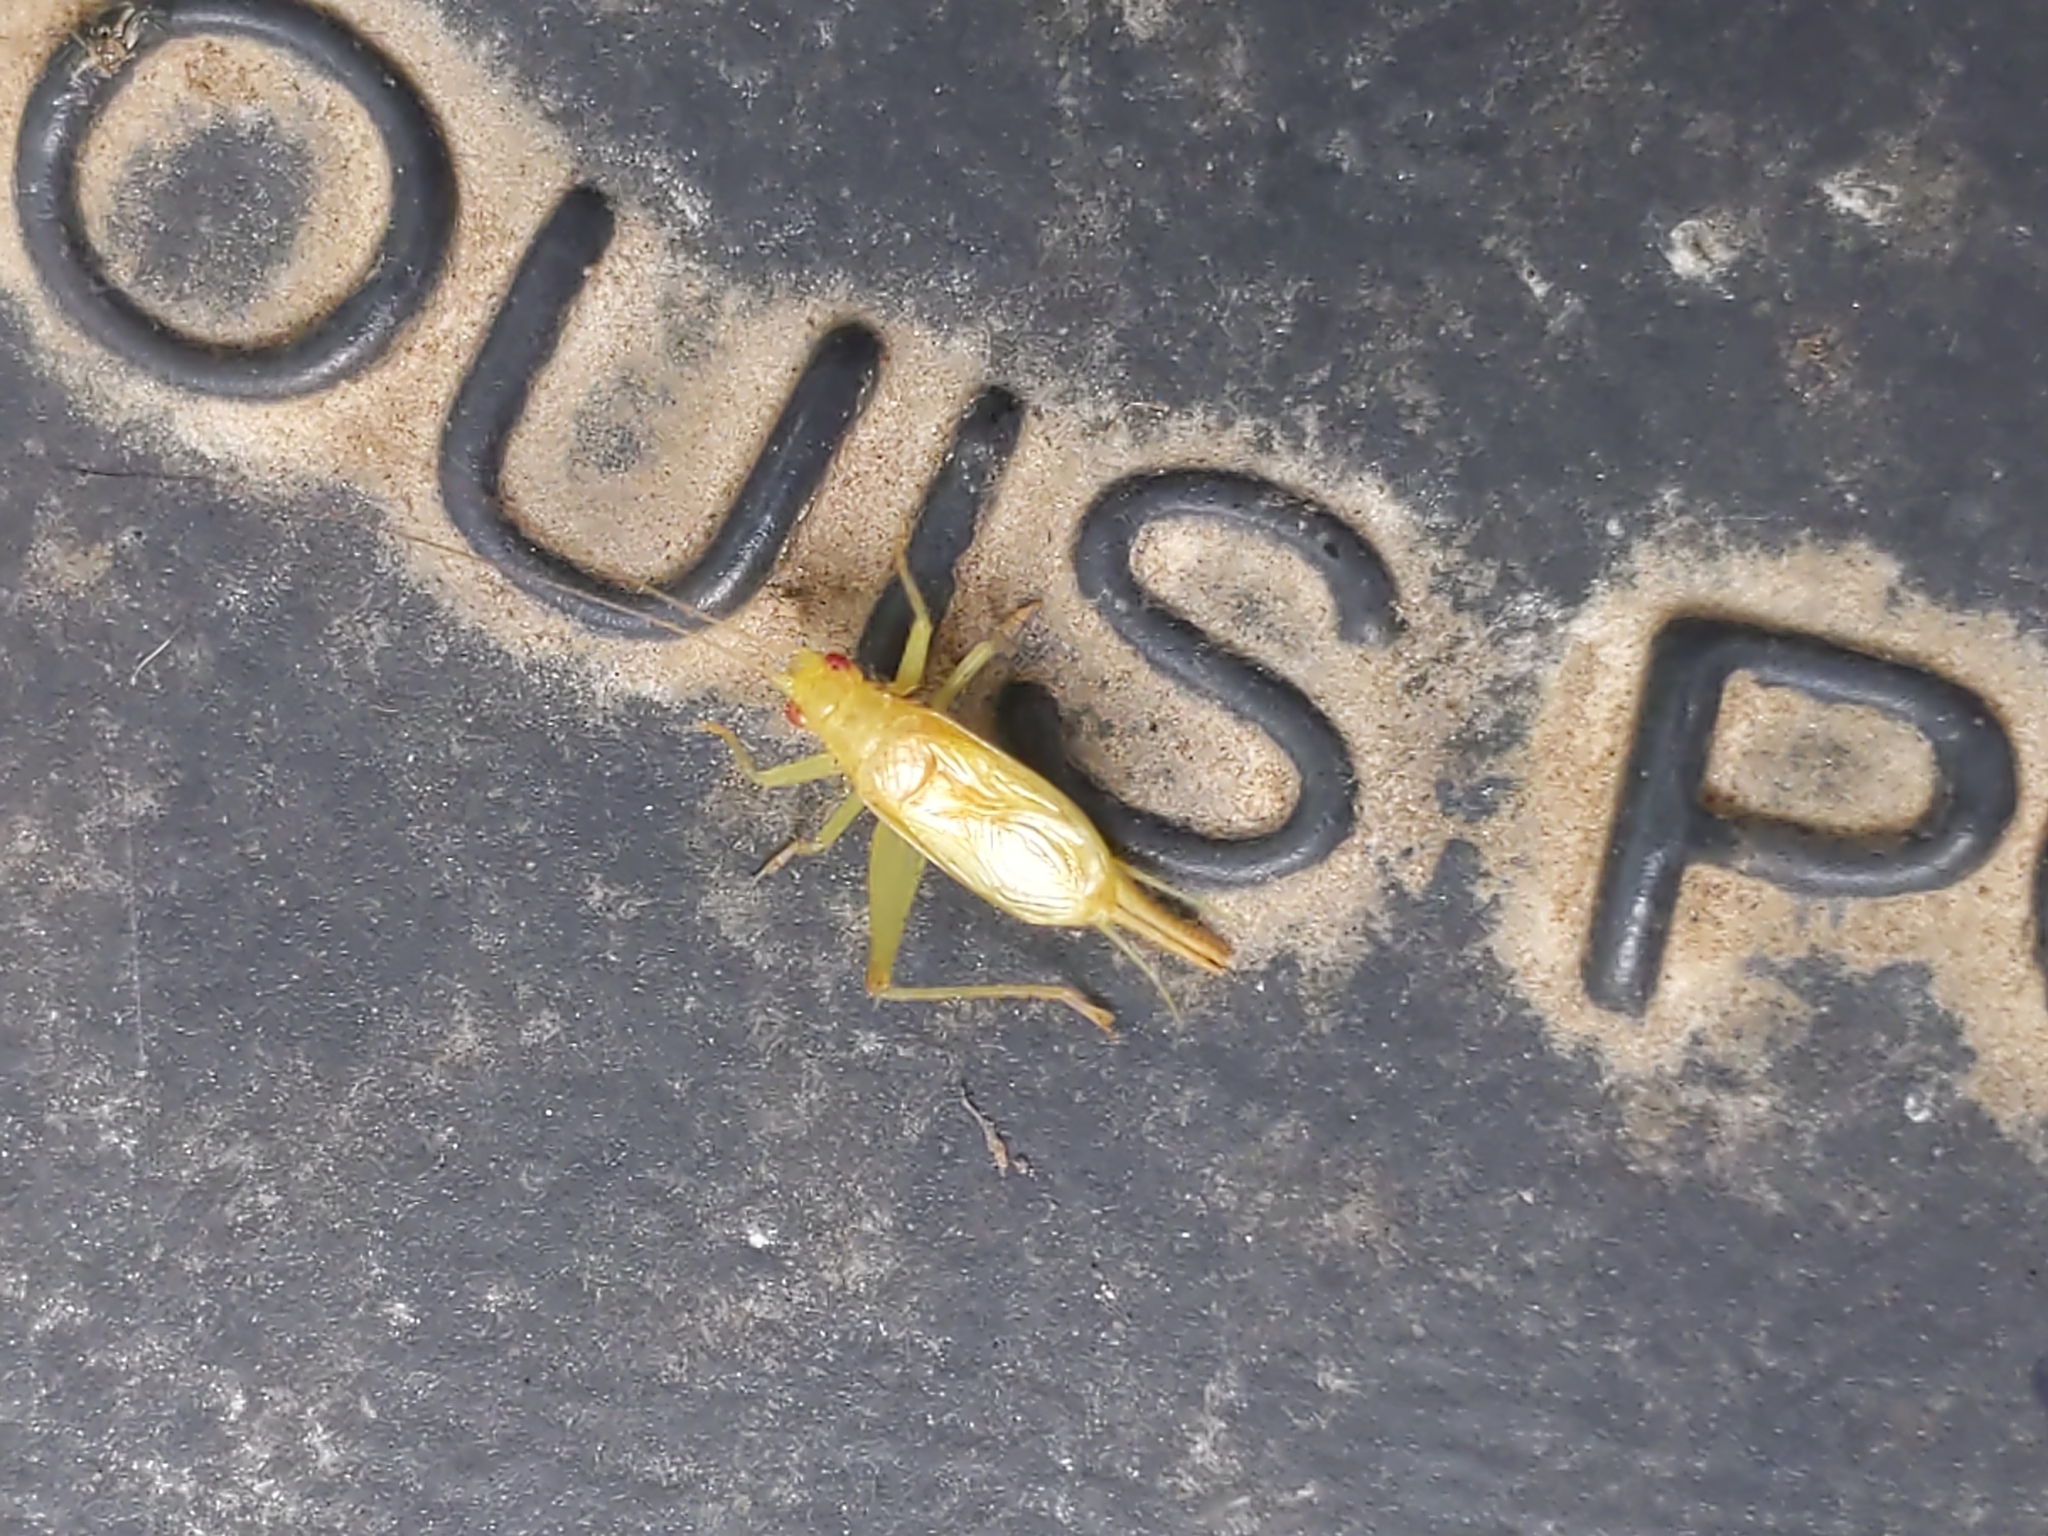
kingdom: Animalia
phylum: Arthropoda
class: Insecta
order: Orthoptera
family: Trigonidiidae
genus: Cyrtoxipha
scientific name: Cyrtoxipha columbiana
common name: Columbian trig
